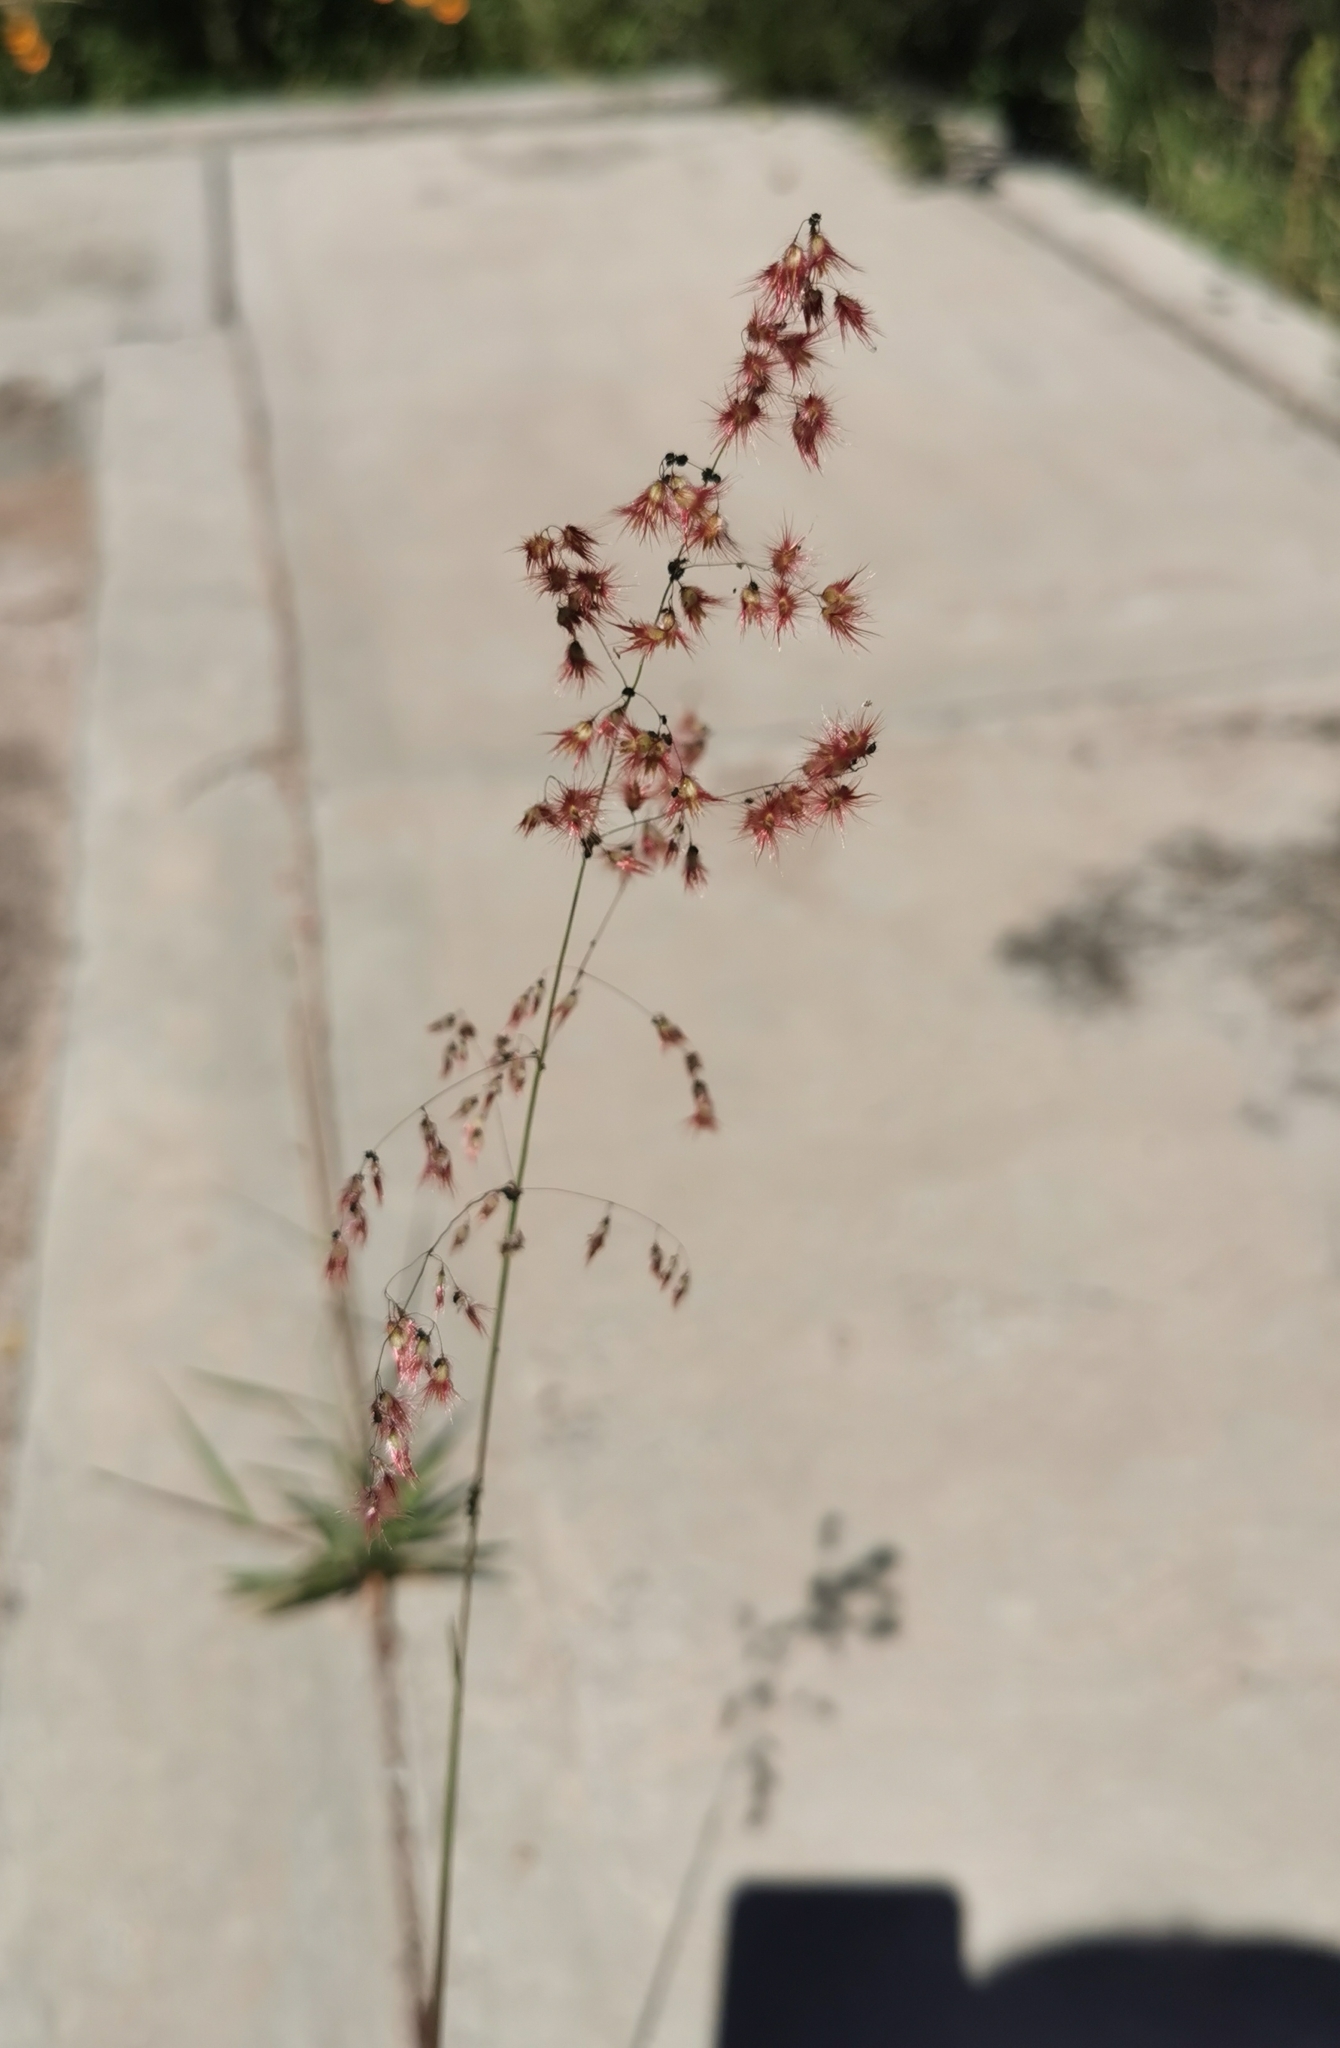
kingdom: Plantae
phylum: Tracheophyta
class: Liliopsida
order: Poales
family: Poaceae
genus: Melinis
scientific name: Melinis repens
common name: Rose natal grass
